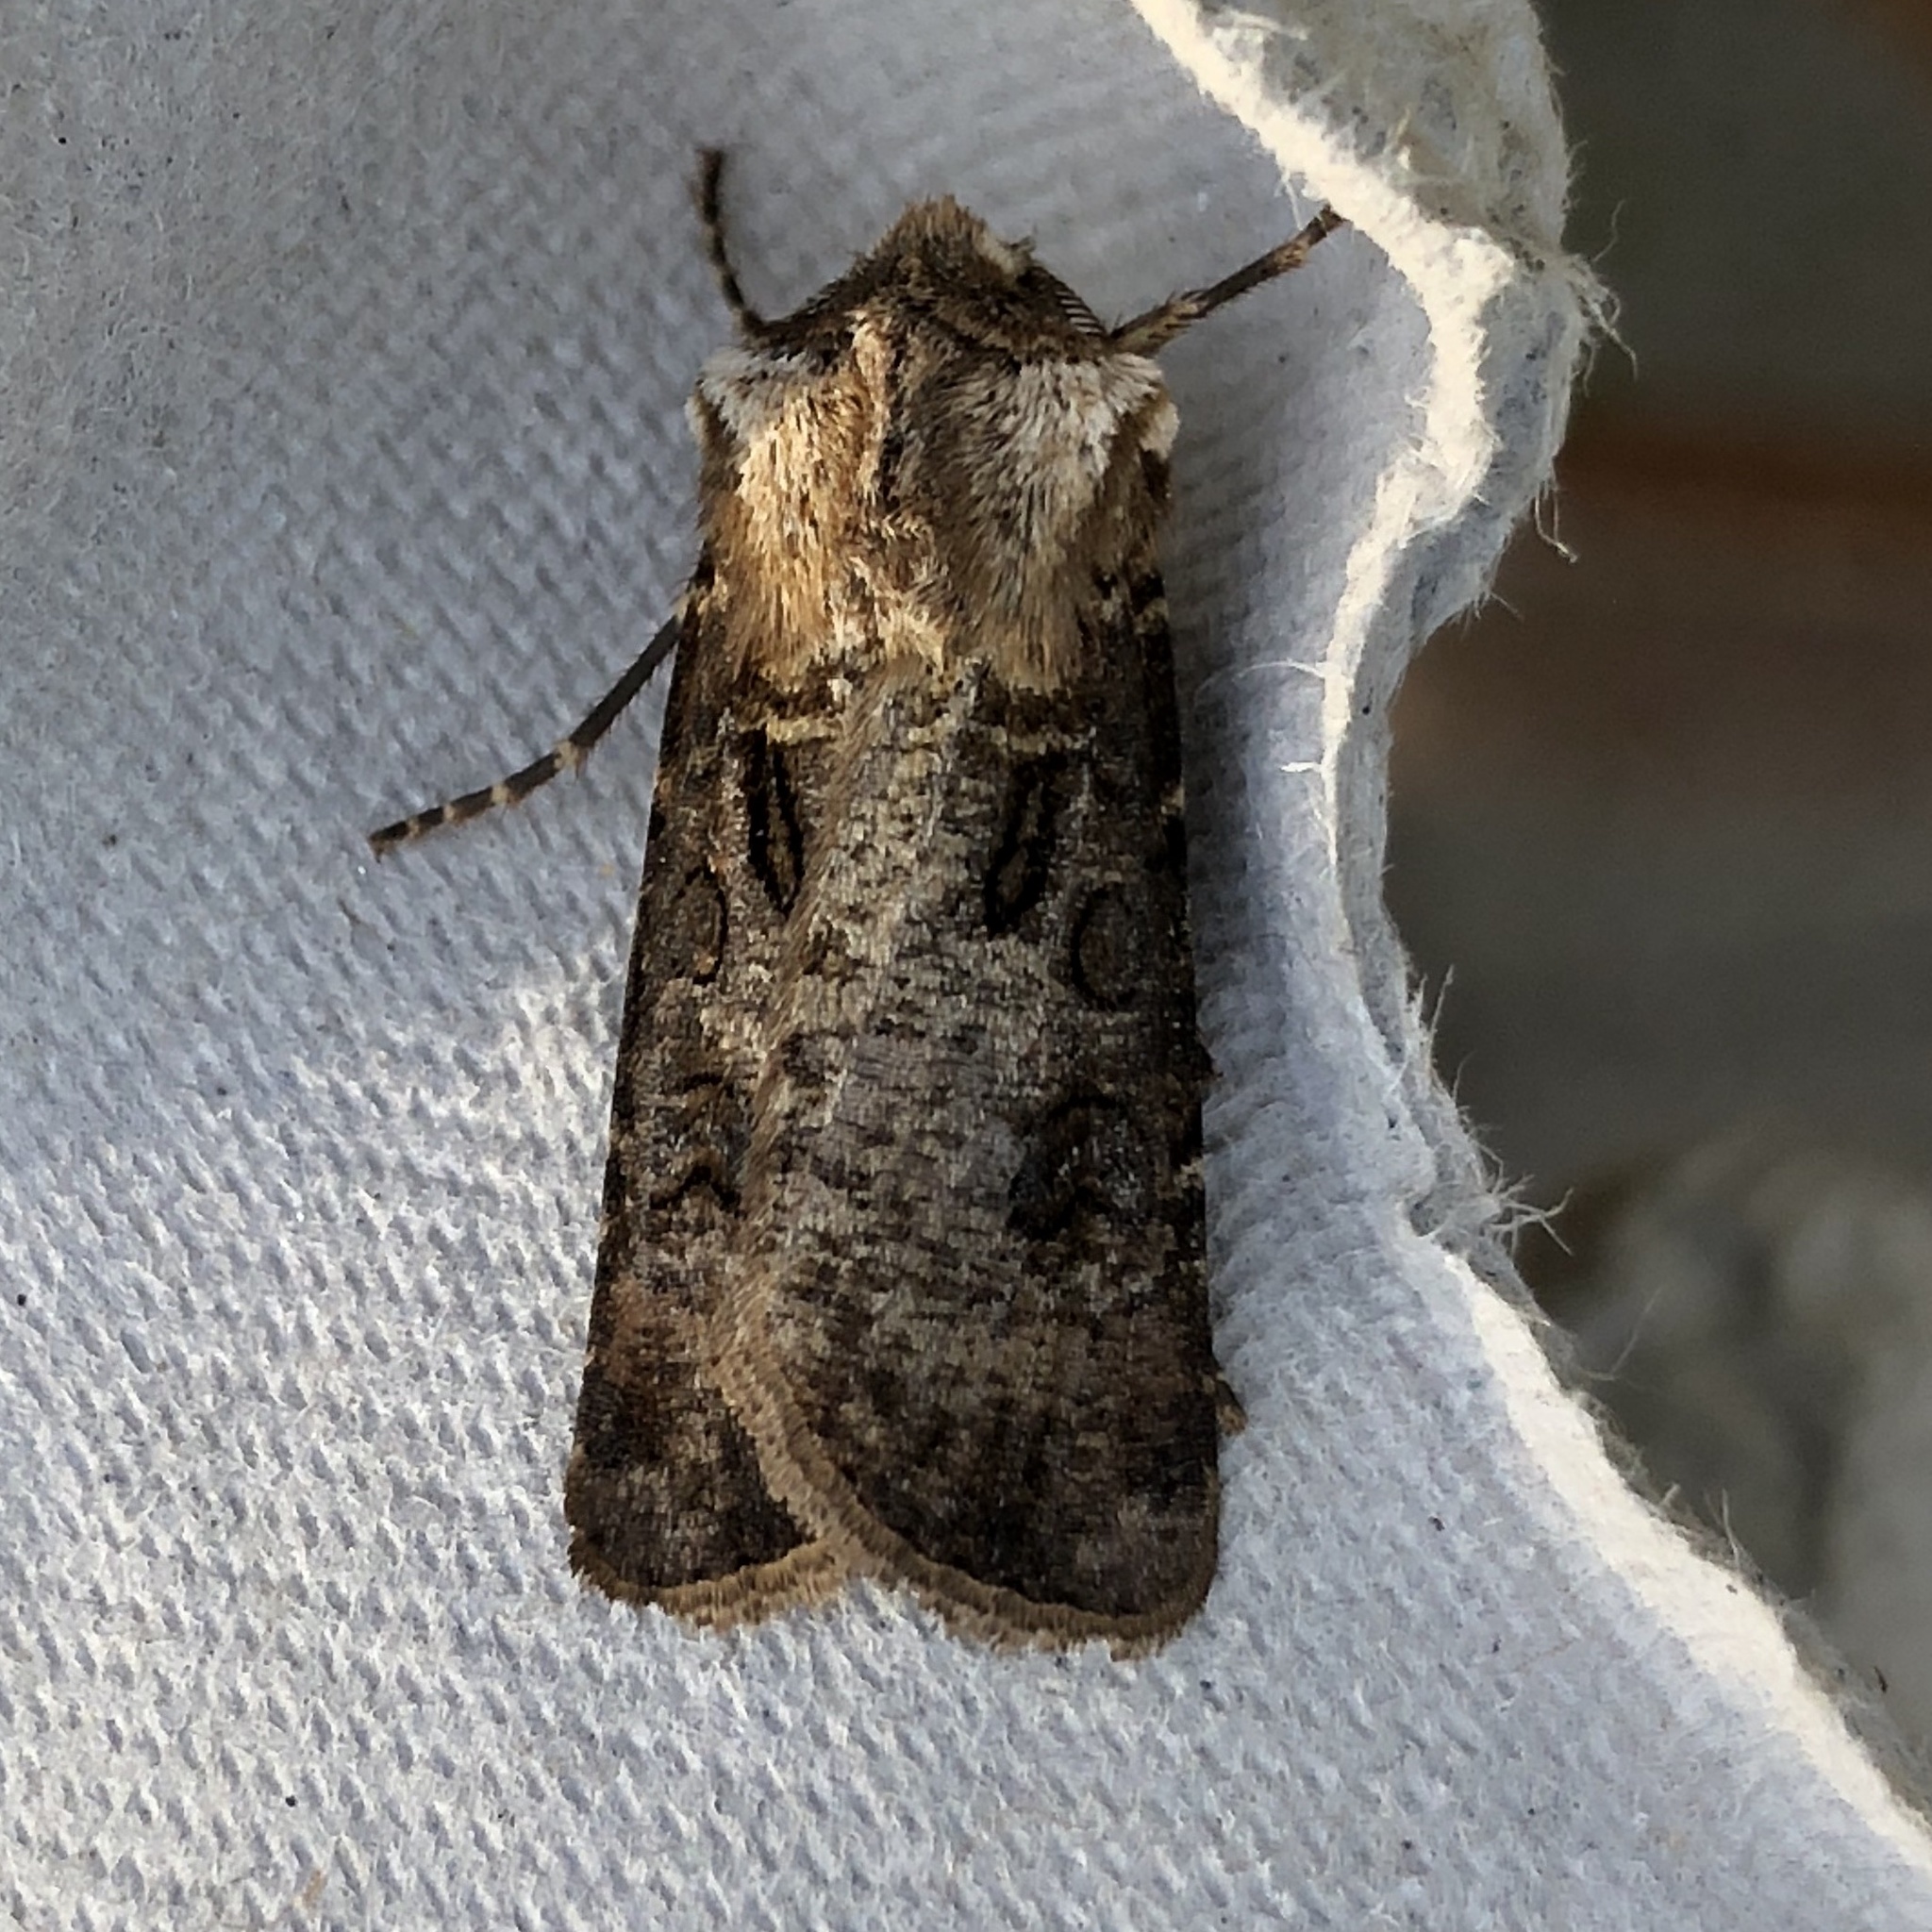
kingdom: Animalia
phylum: Arthropoda
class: Insecta
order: Lepidoptera
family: Noctuidae
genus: Agrotis
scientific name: Agrotis clavis
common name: Heart and club
